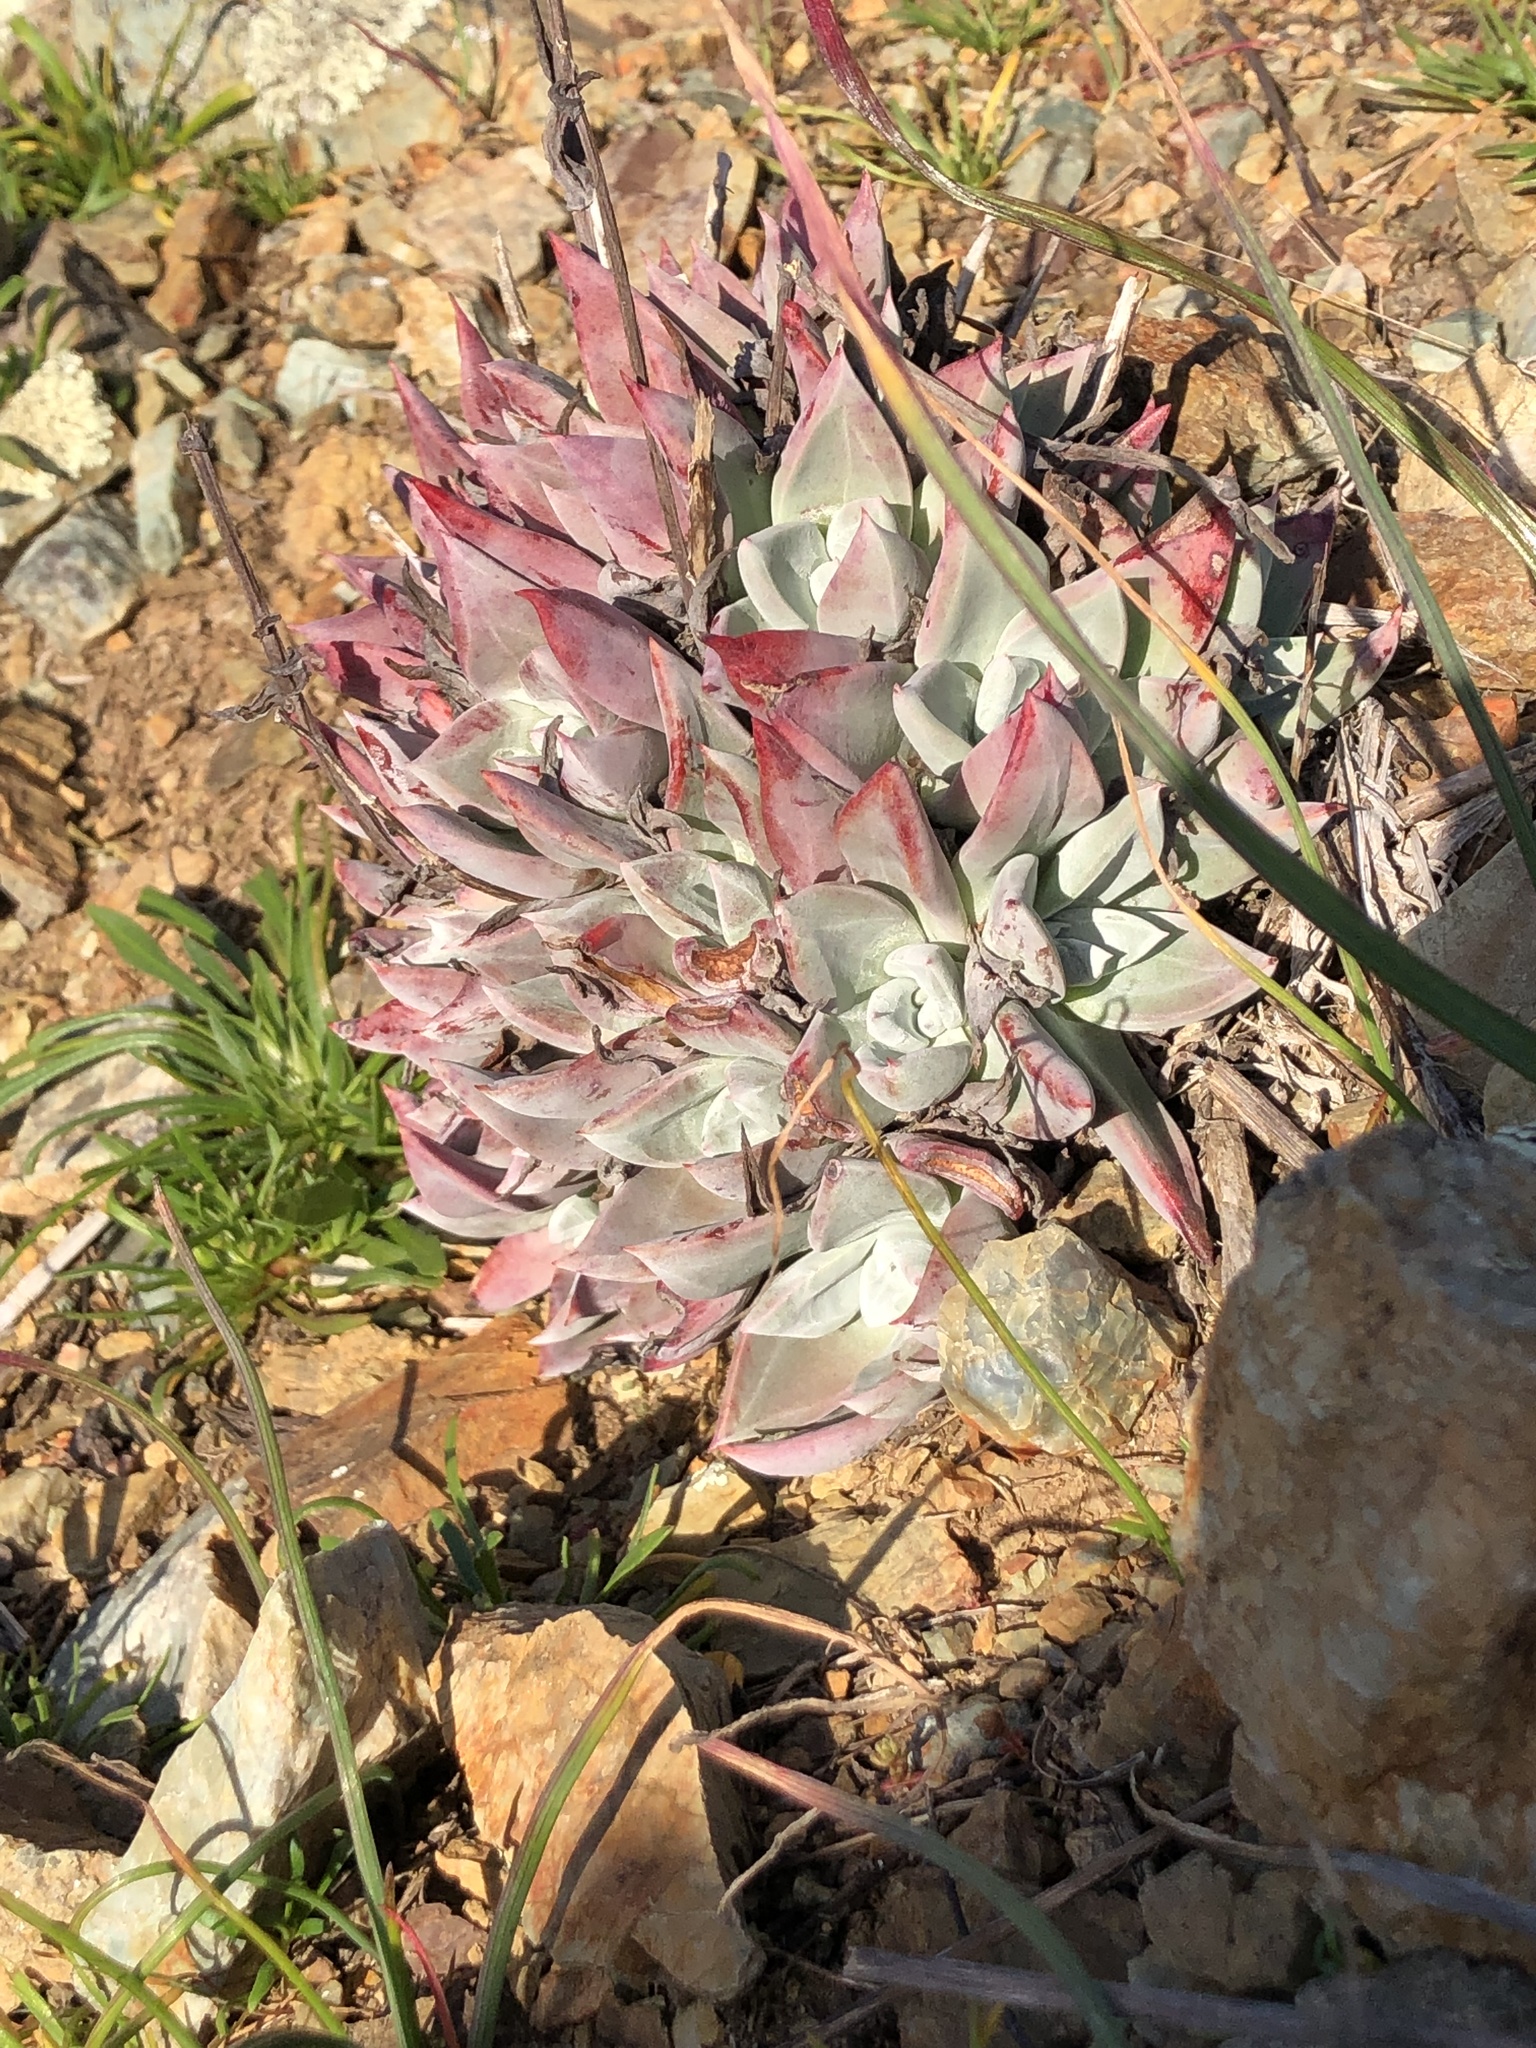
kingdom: Plantae
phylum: Tracheophyta
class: Magnoliopsida
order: Saxifragales
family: Crassulaceae
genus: Dudleya
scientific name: Dudleya farinosa
